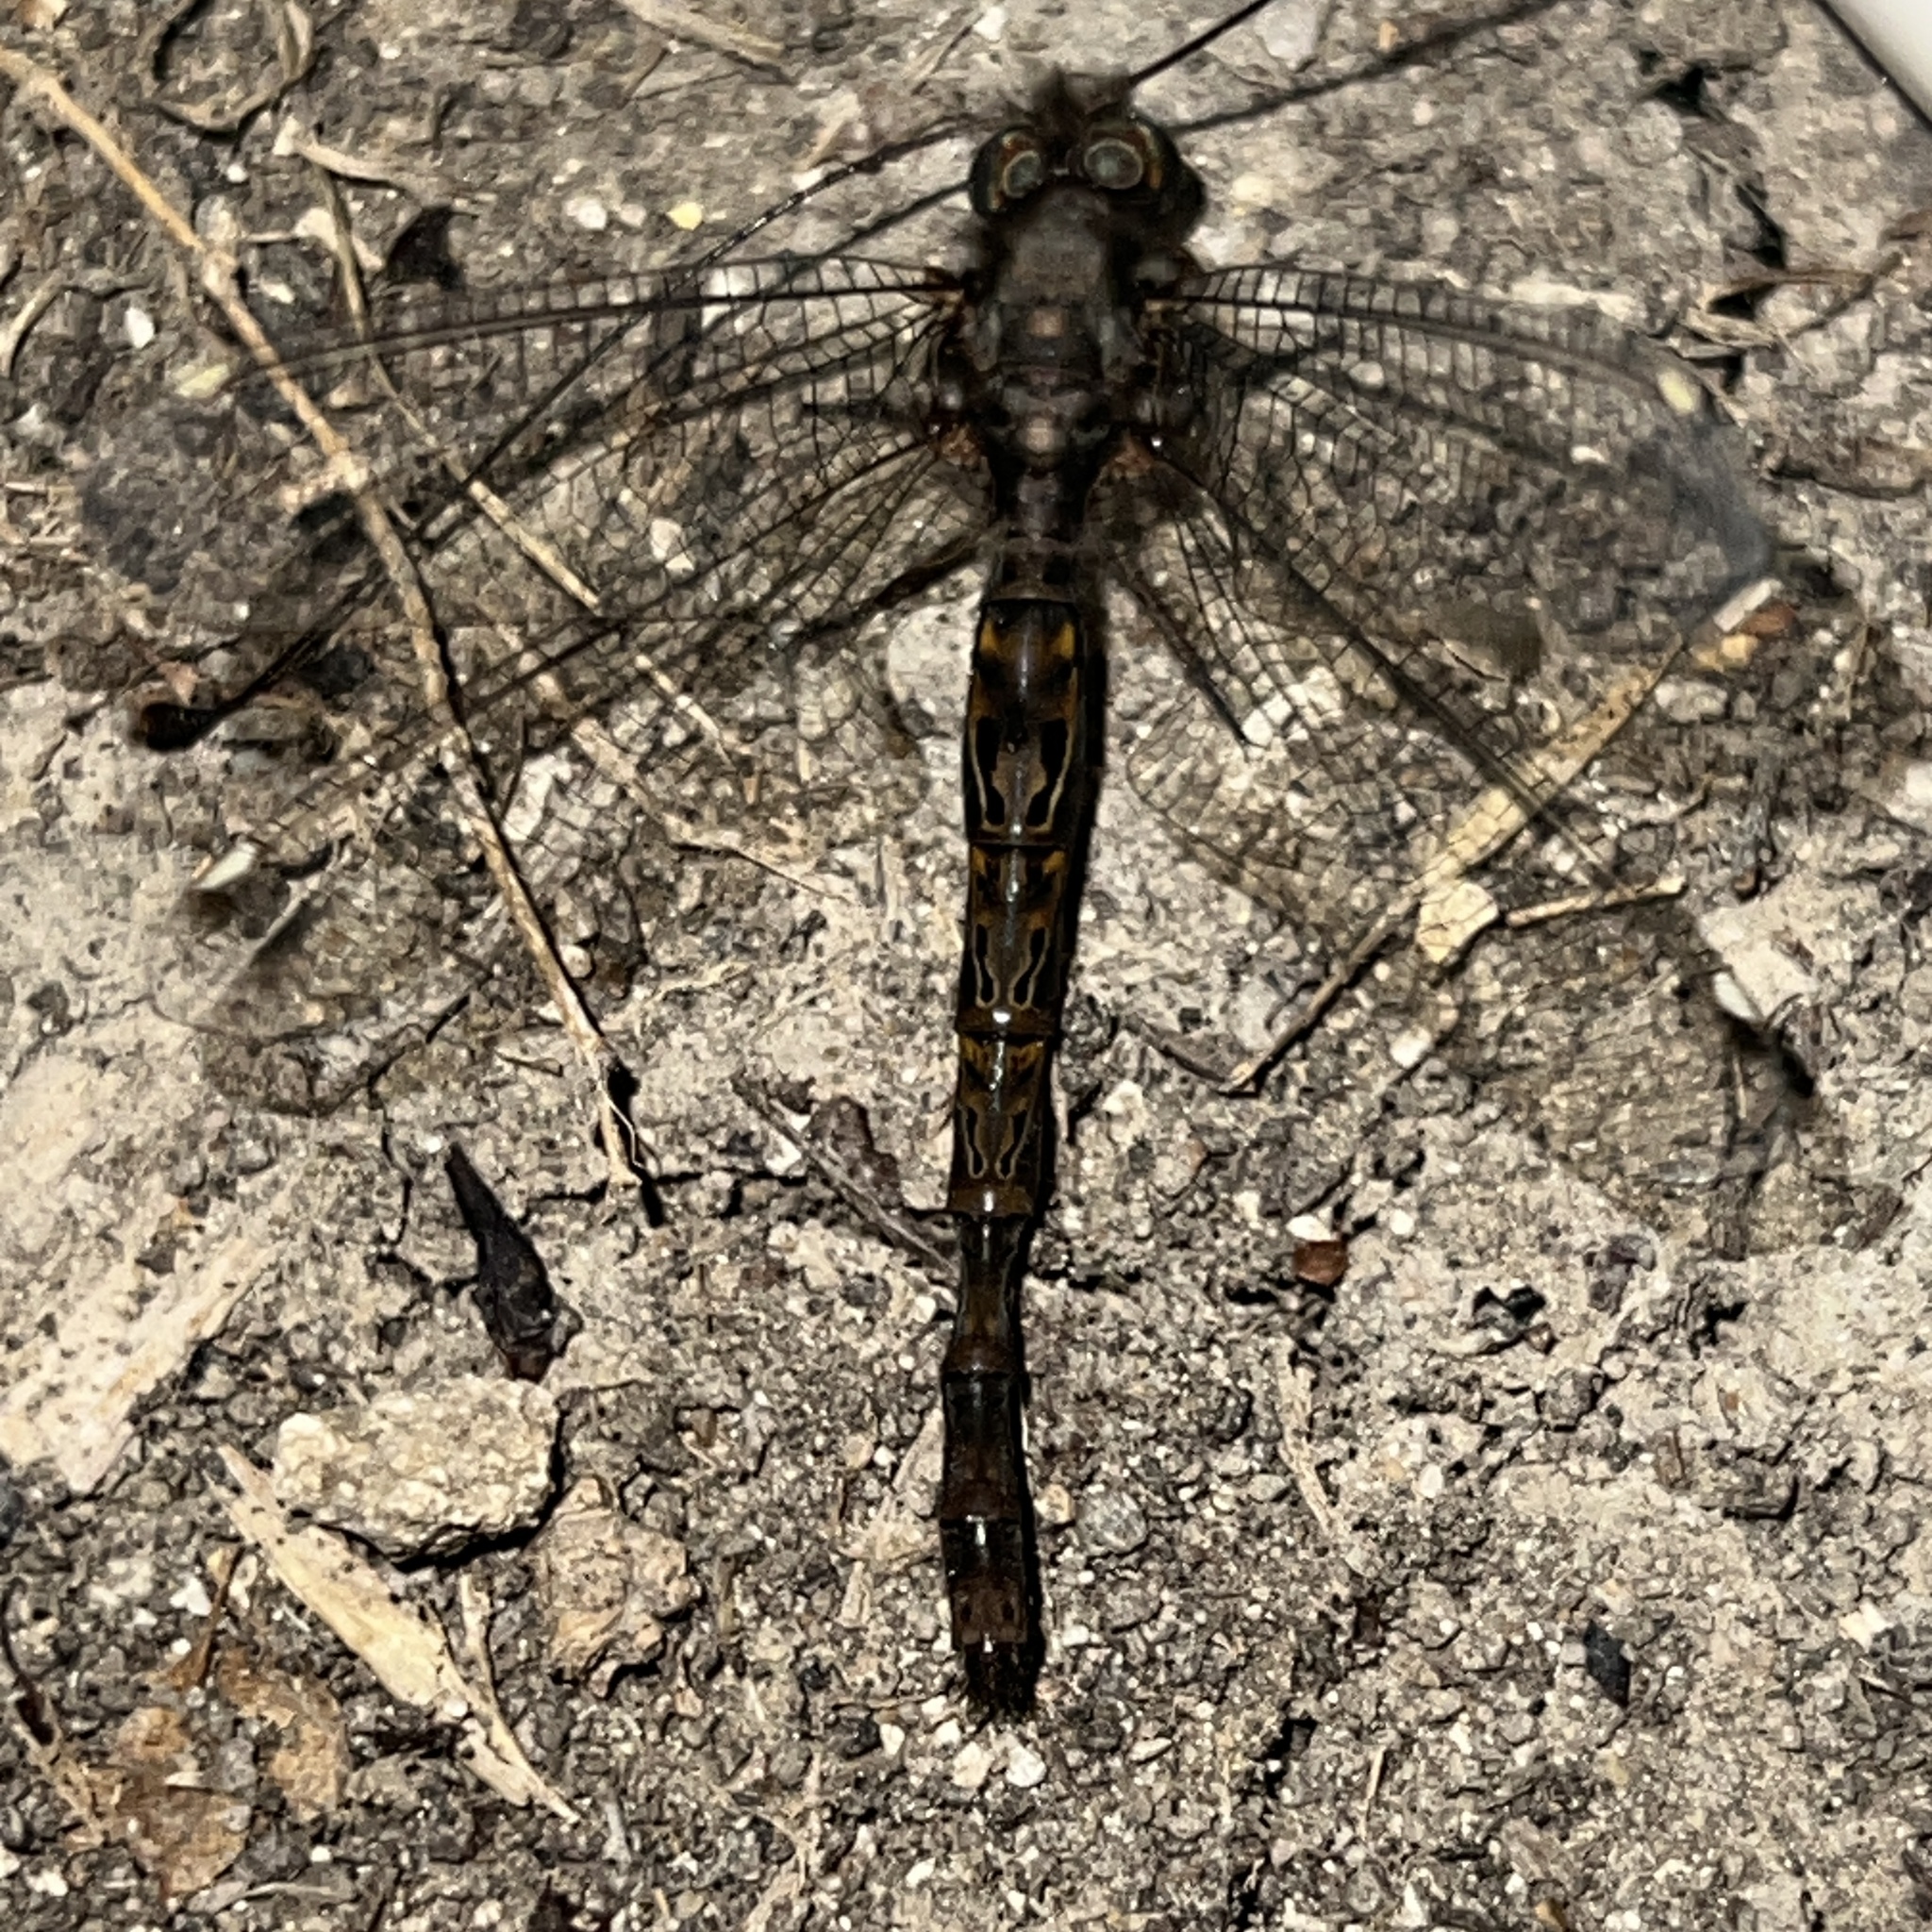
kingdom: Animalia
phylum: Arthropoda
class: Insecta
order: Neuroptera
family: Ascalaphidae
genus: Ululodes
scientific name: Ululodes quadripunctatus
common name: Four-spotted owlfly
